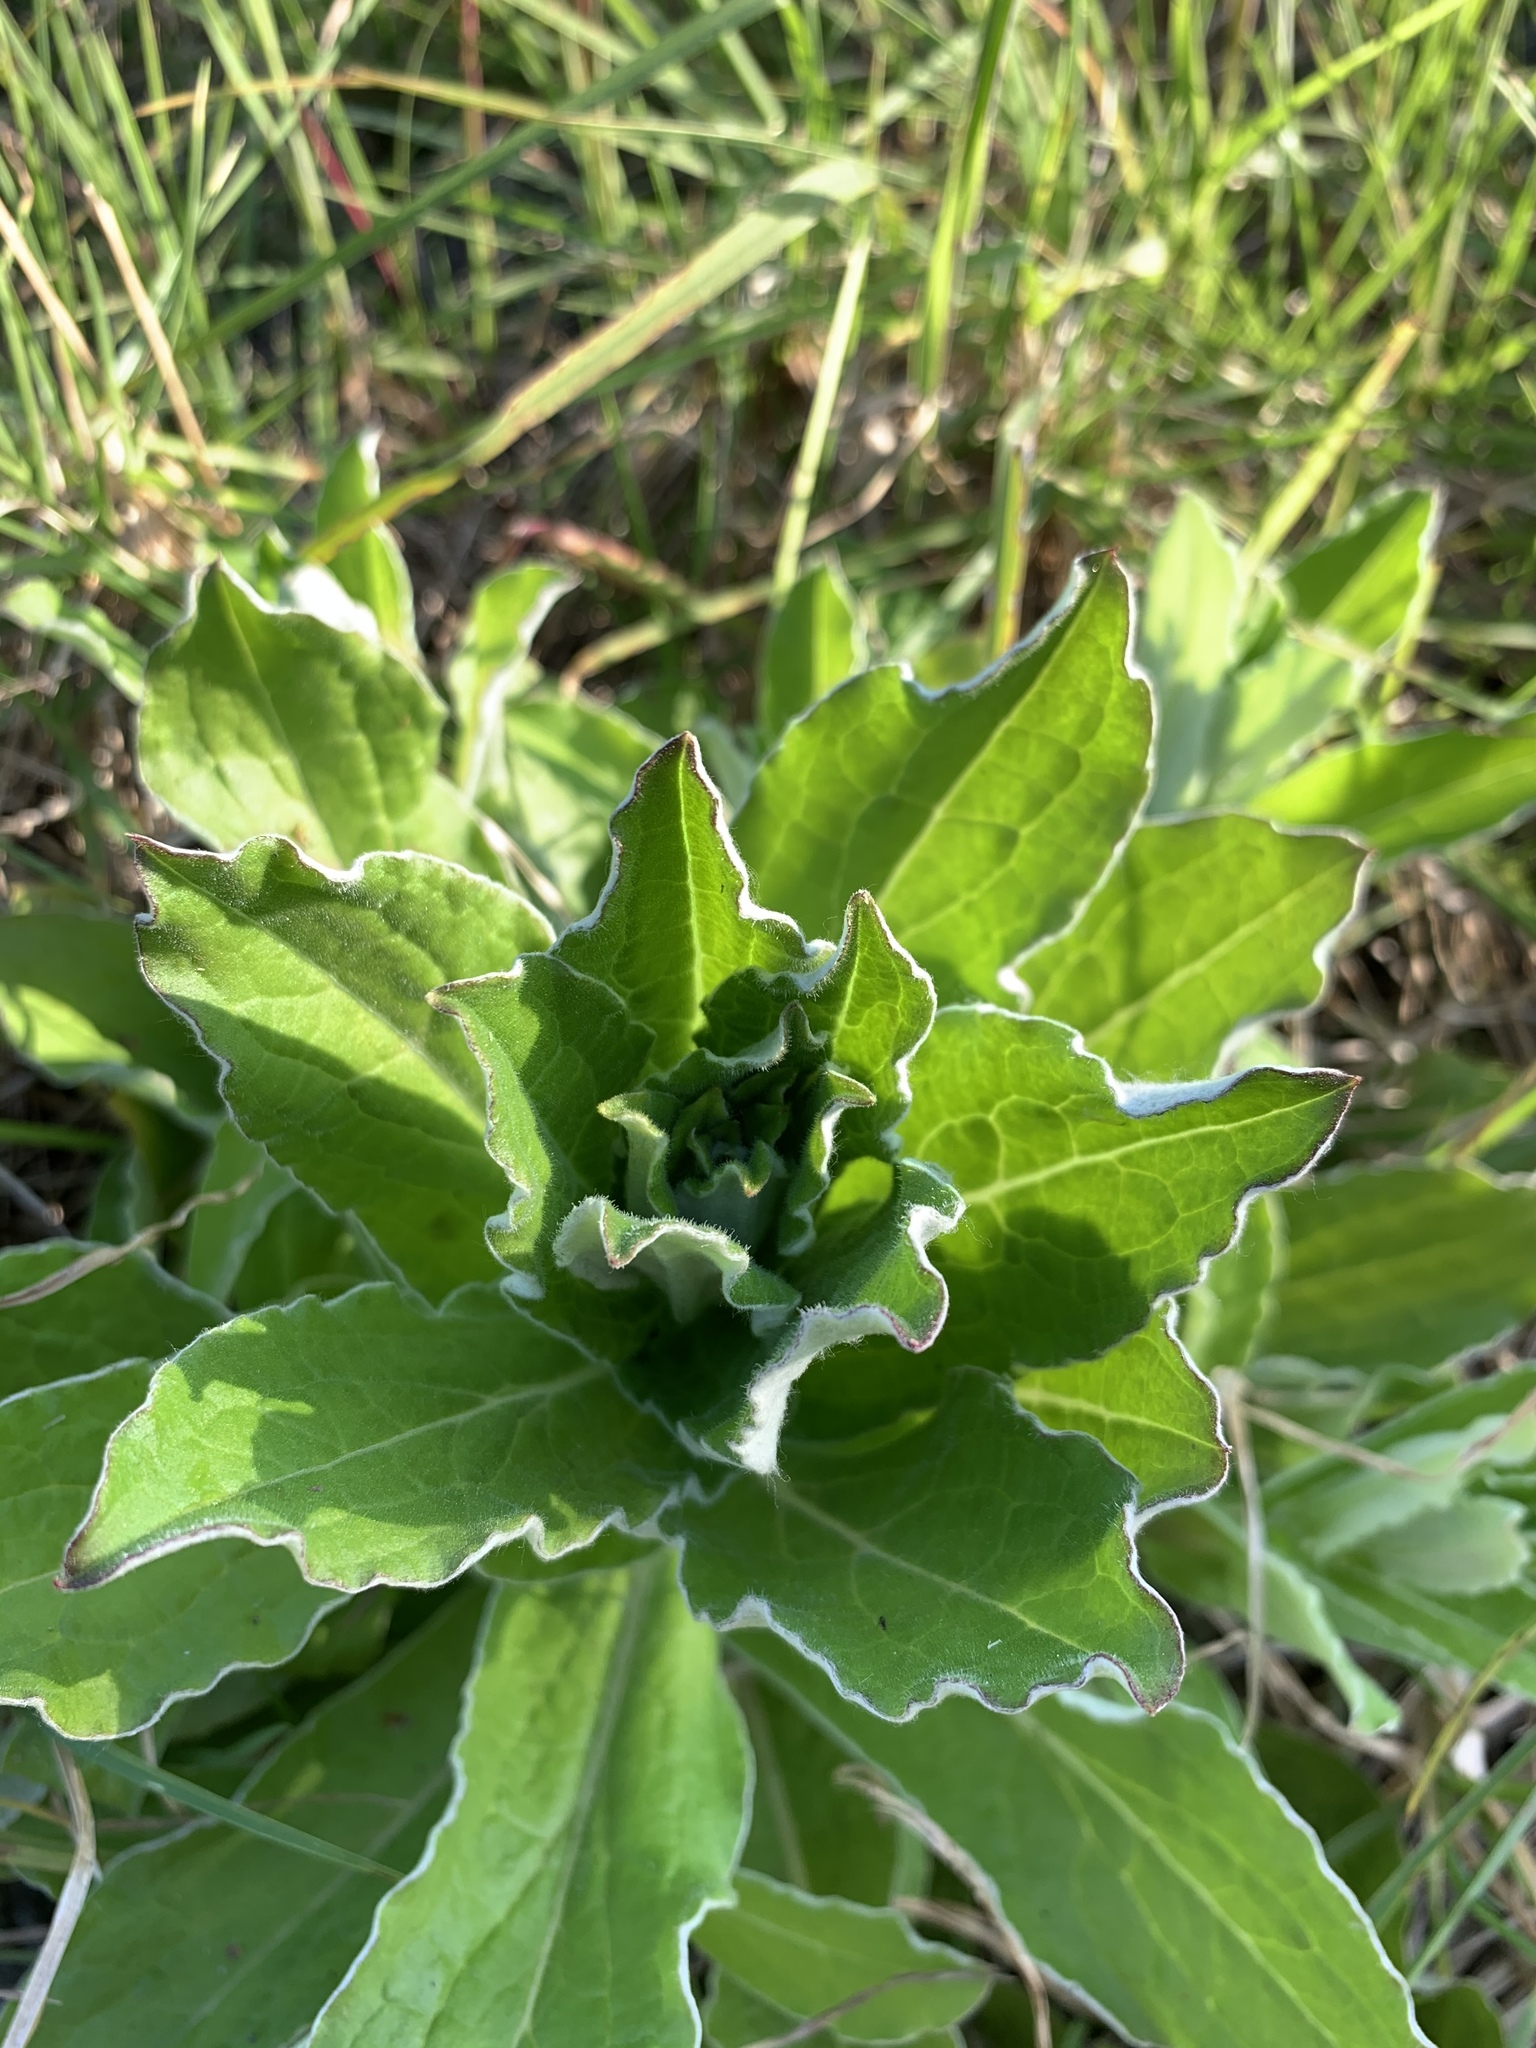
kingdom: Plantae
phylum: Tracheophyta
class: Magnoliopsida
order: Asterales
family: Asteraceae
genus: Helichrysum
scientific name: Helichrysum foetidum
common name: Stinking everlasting
